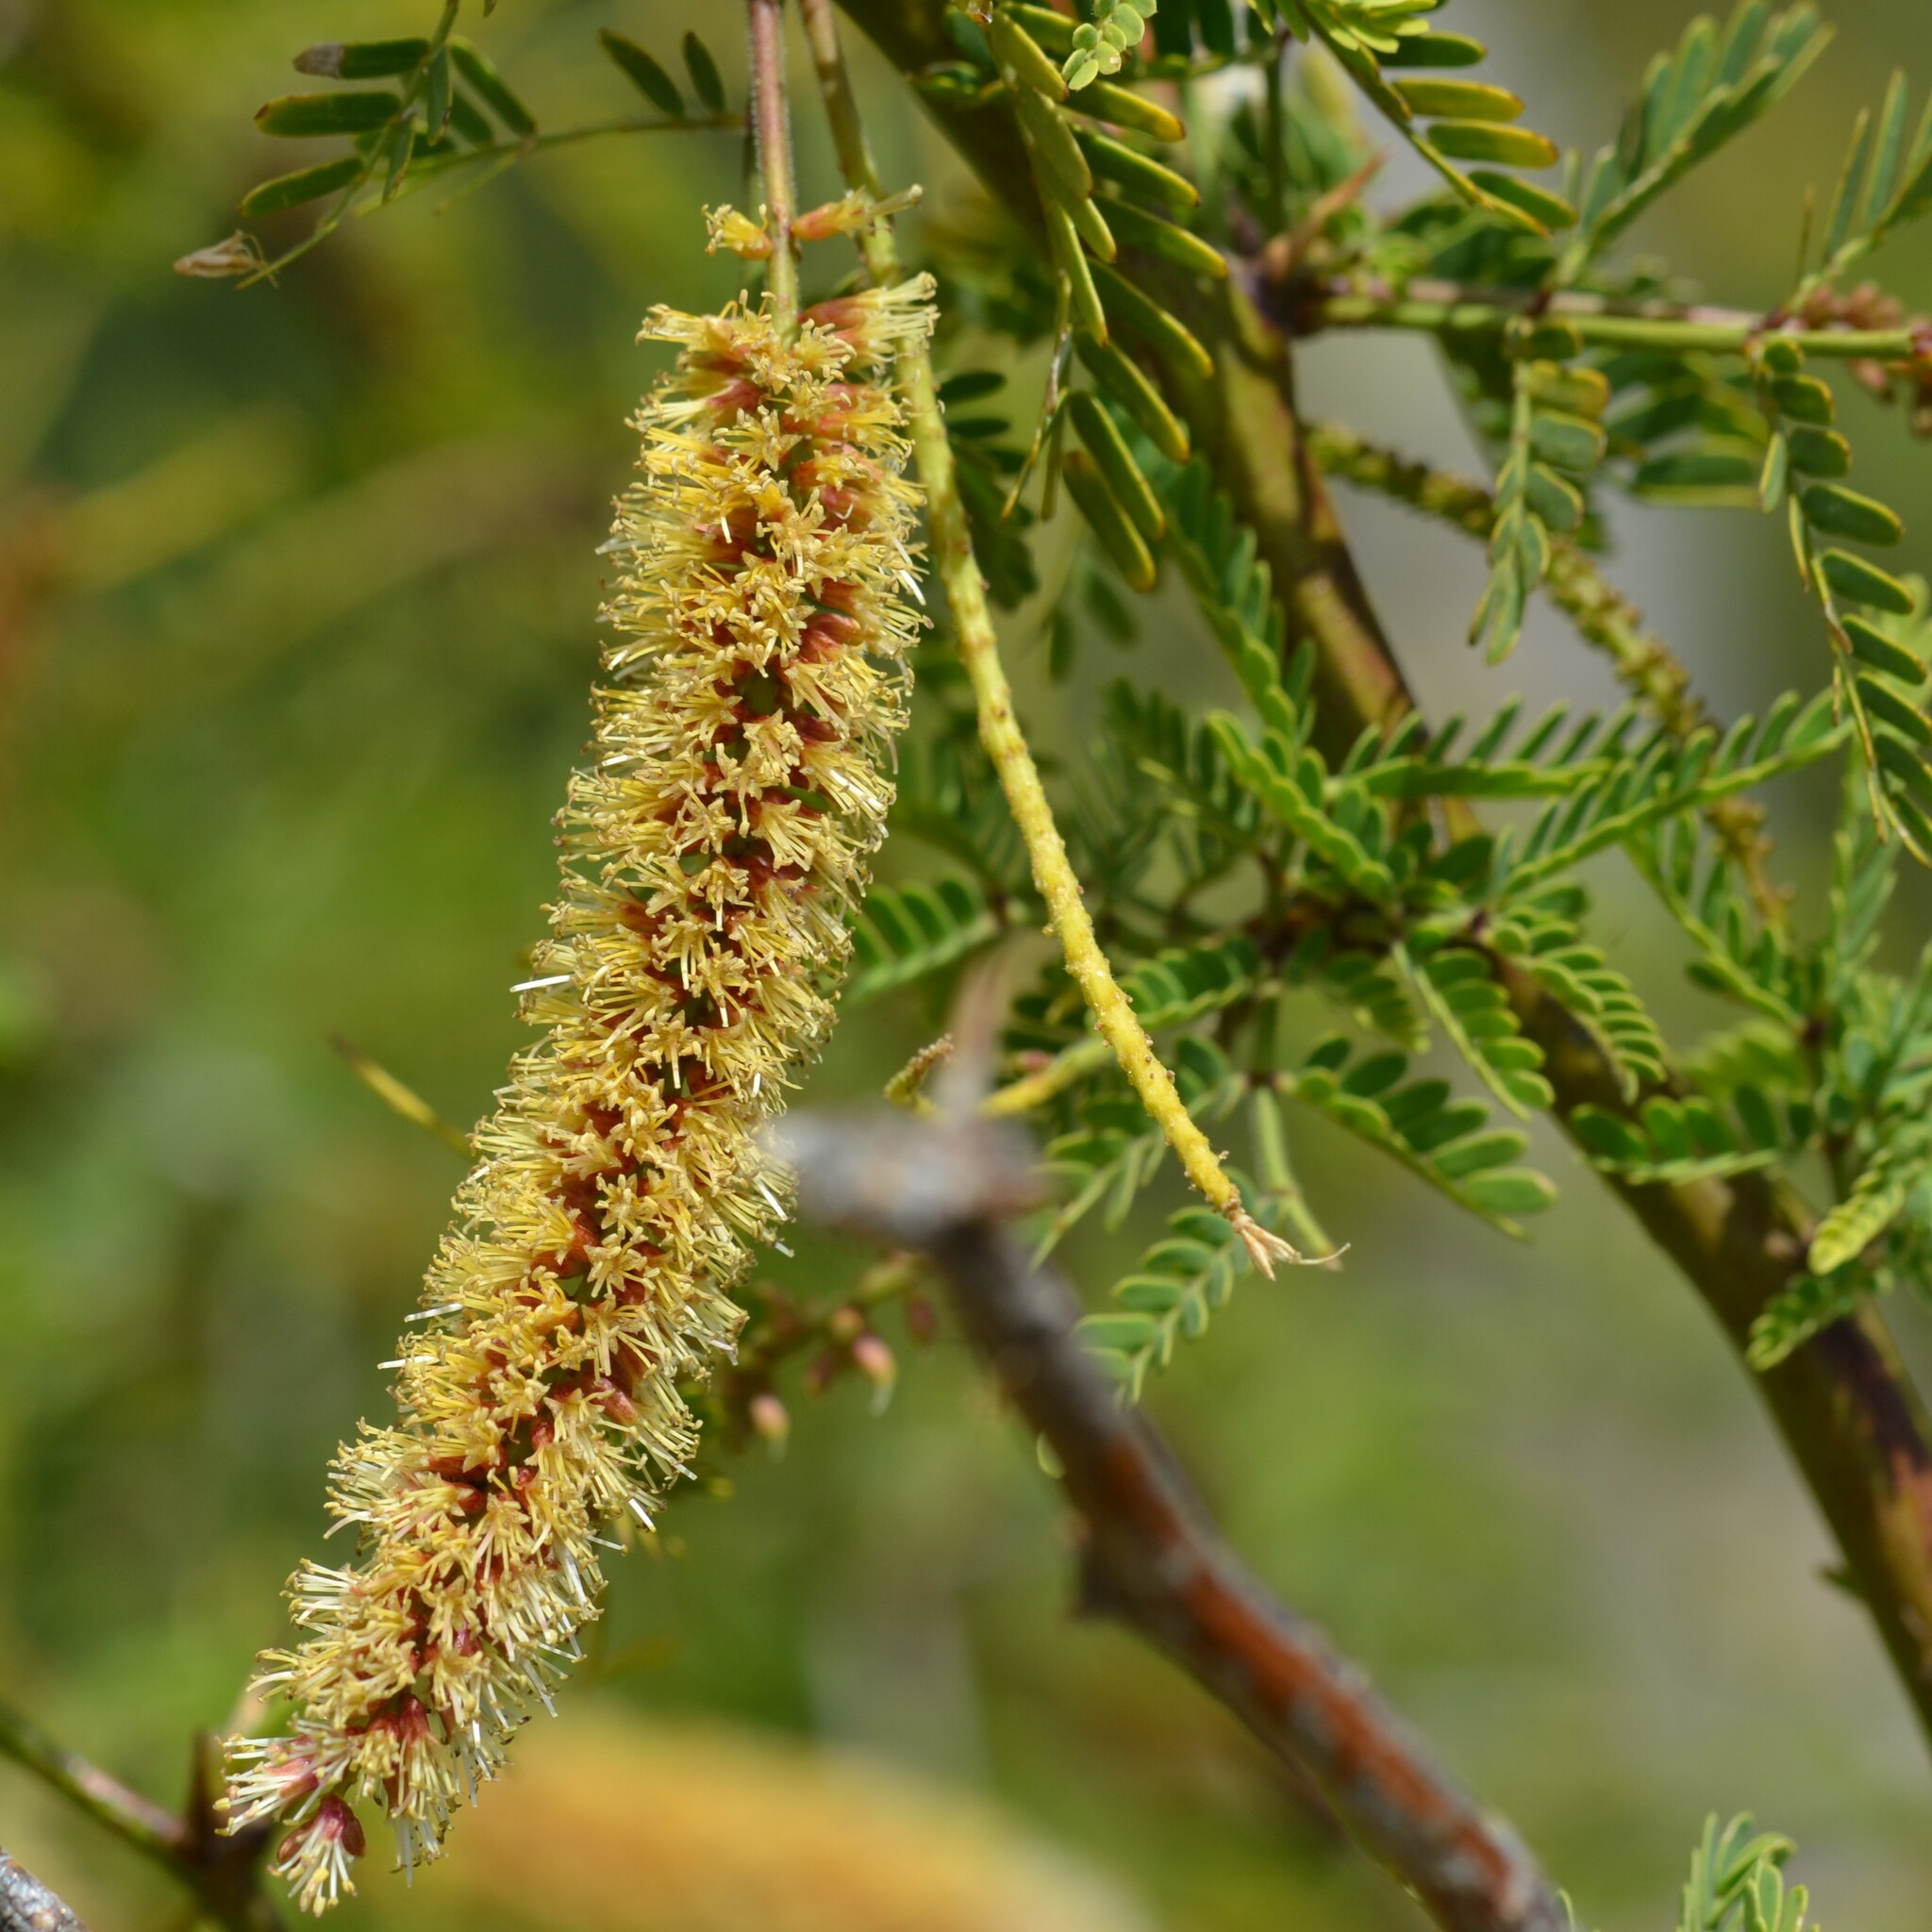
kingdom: Plantae
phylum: Tracheophyta
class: Magnoliopsida
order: Fabales
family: Fabaceae
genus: Prosopis
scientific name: Prosopis pallida
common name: Mesquite
